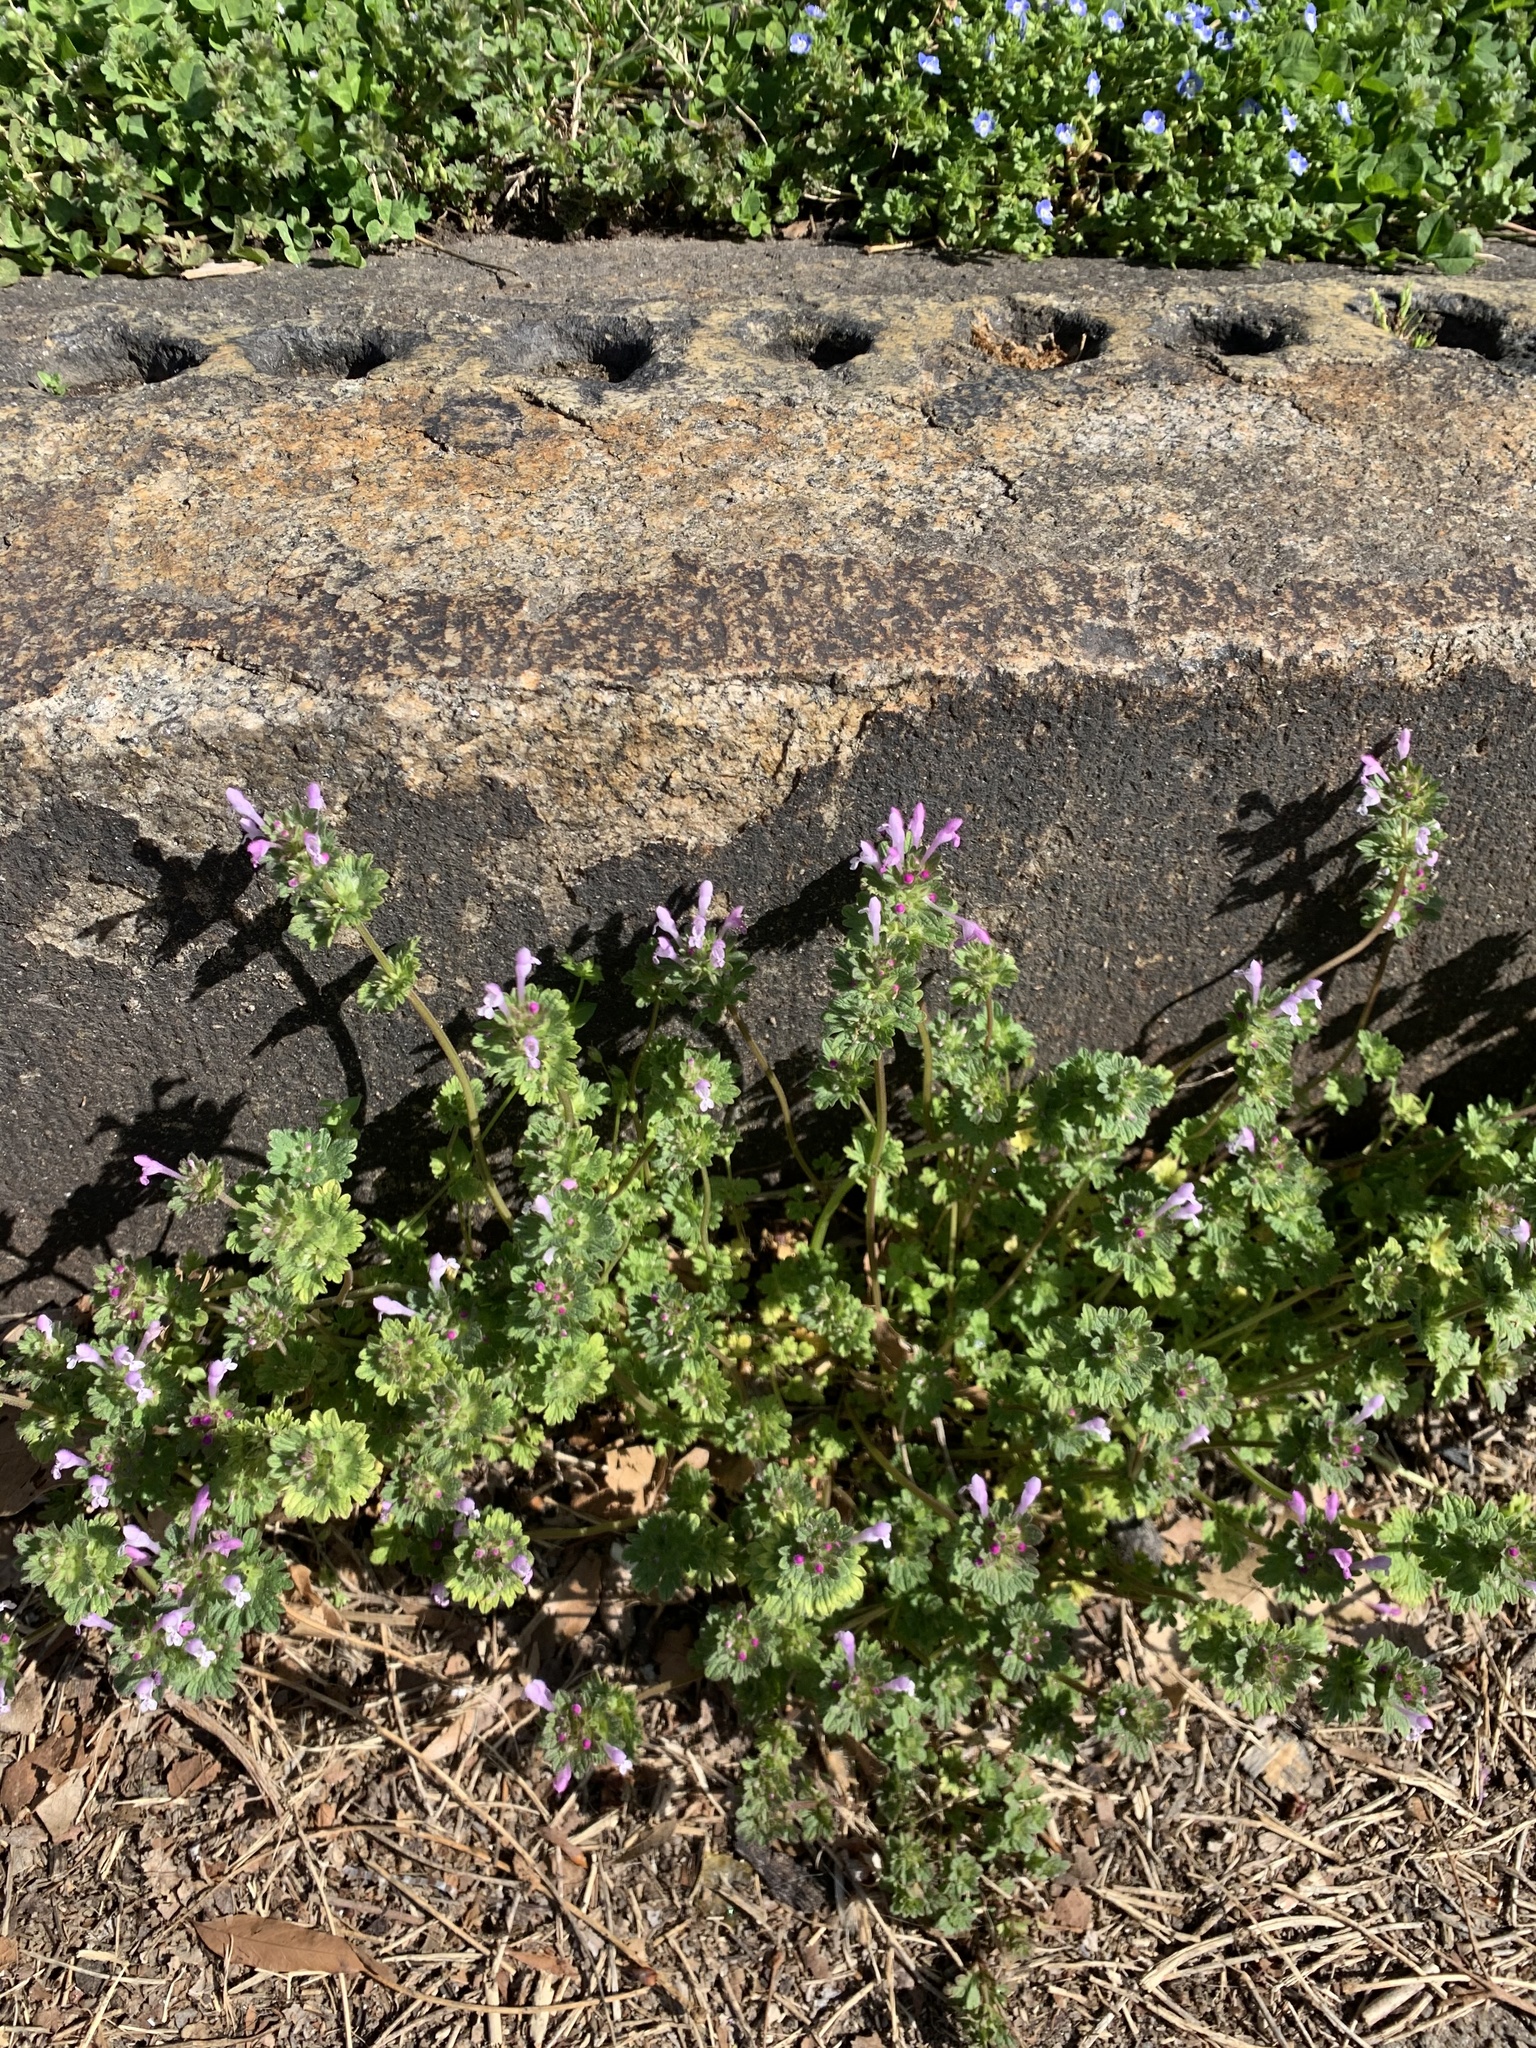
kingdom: Plantae
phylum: Tracheophyta
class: Magnoliopsida
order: Lamiales
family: Lamiaceae
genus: Lamium
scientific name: Lamium amplexicaule
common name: Henbit dead-nettle
